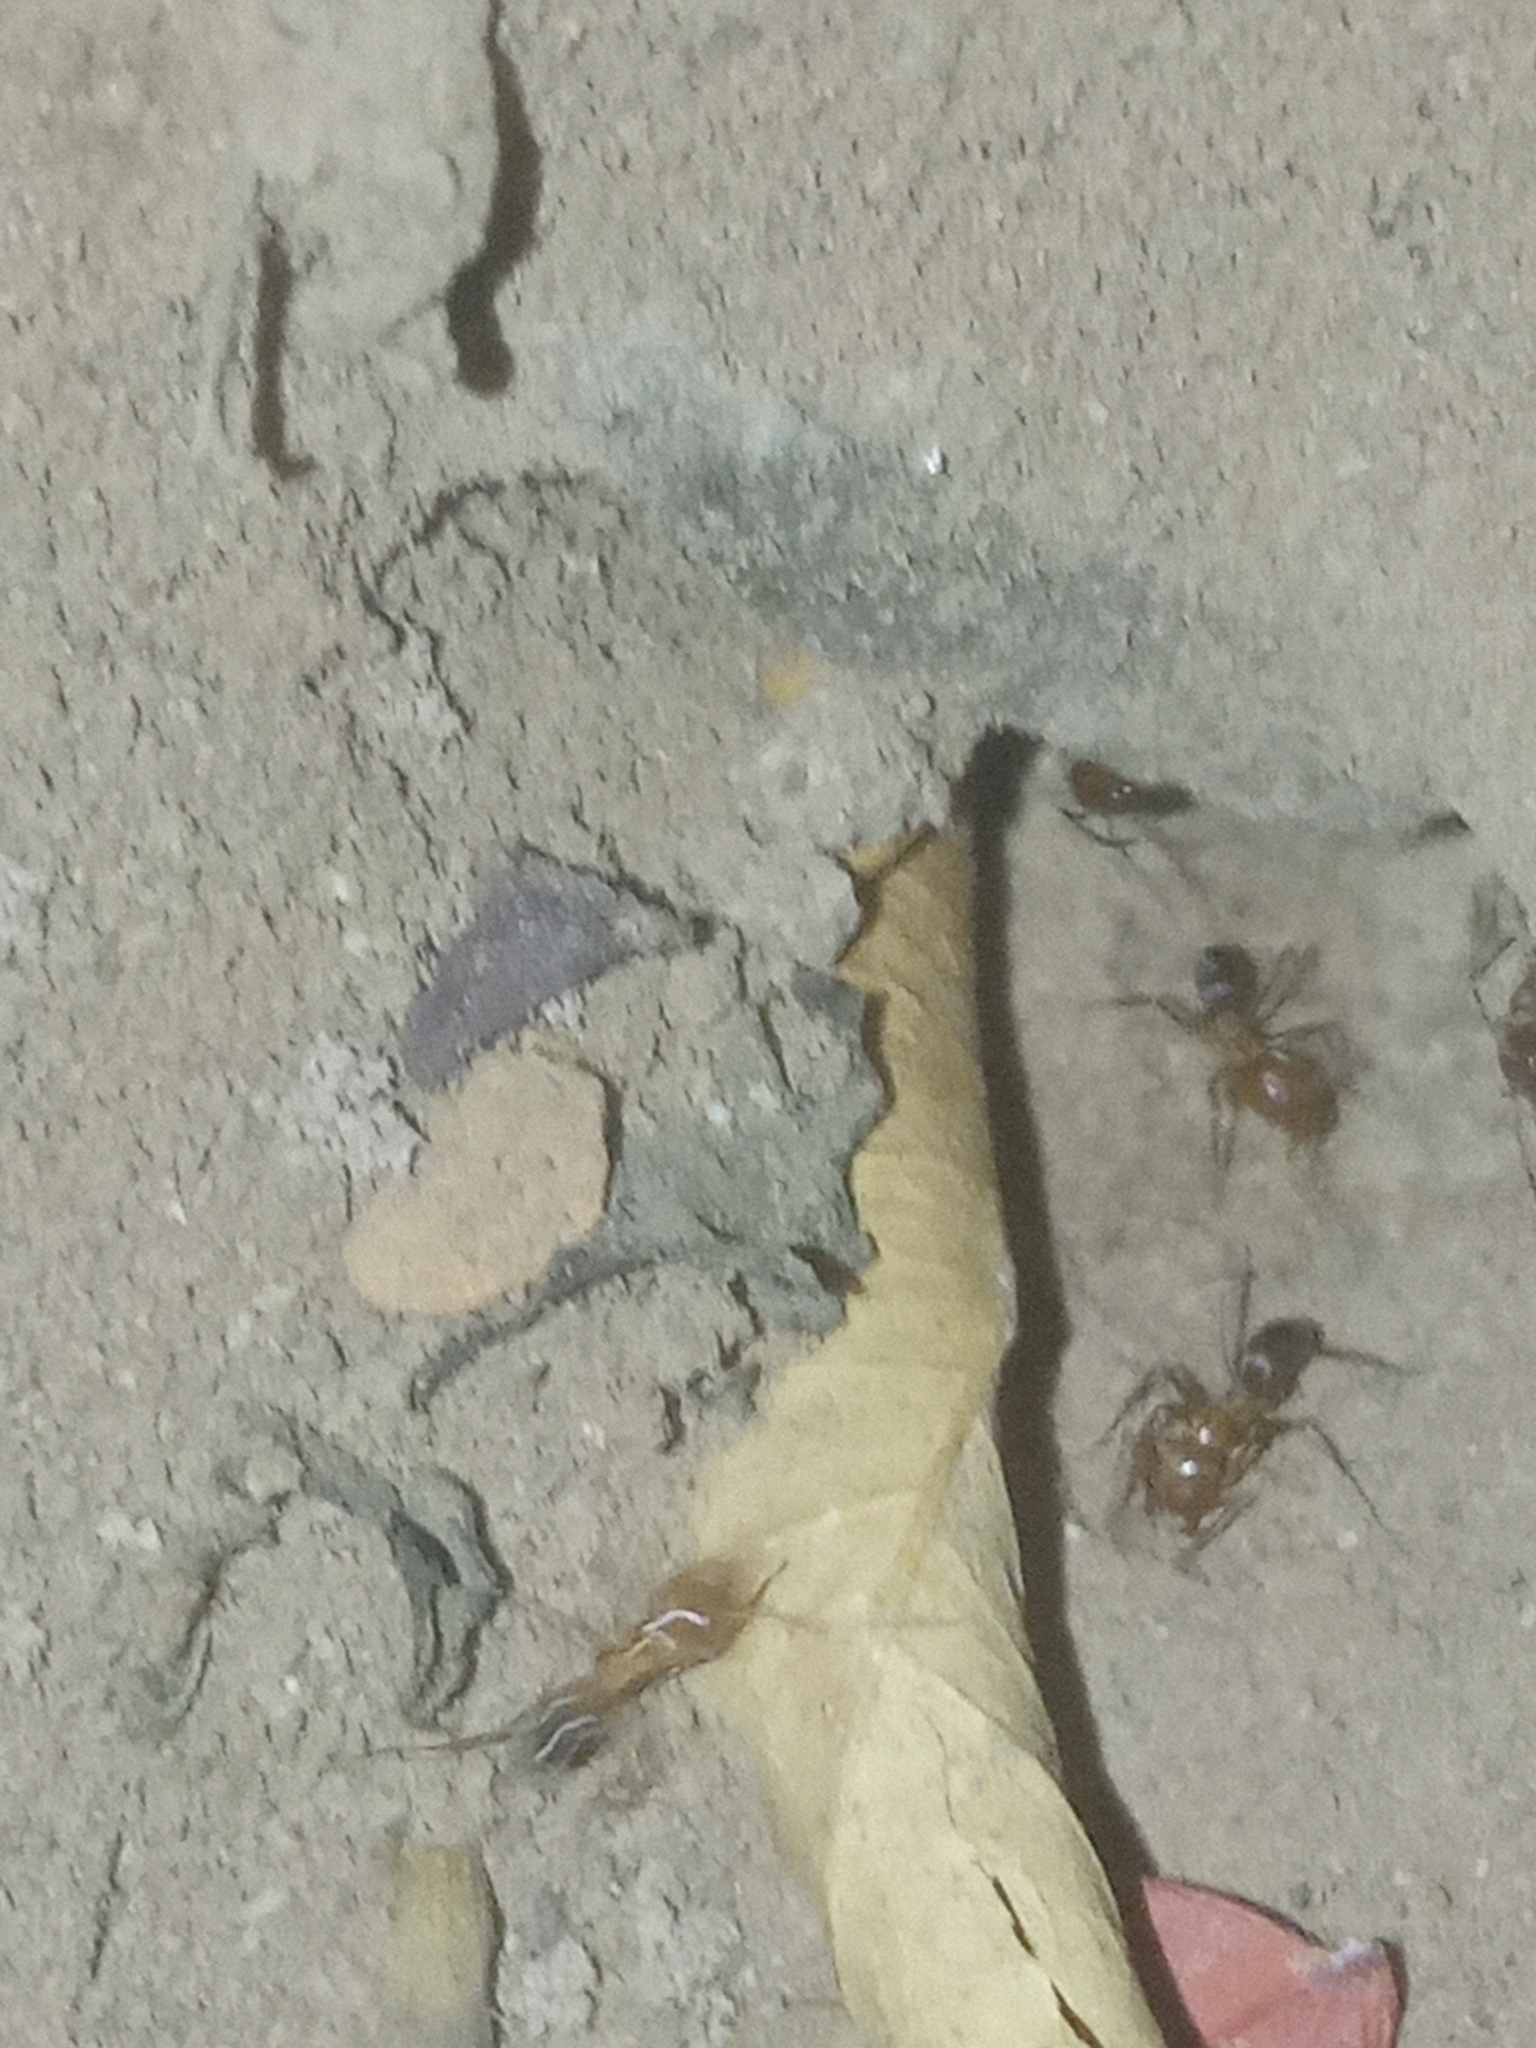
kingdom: Animalia
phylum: Arthropoda
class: Insecta
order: Hymenoptera
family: Formicidae
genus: Dorymyrmex
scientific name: Dorymyrmex bicolor
